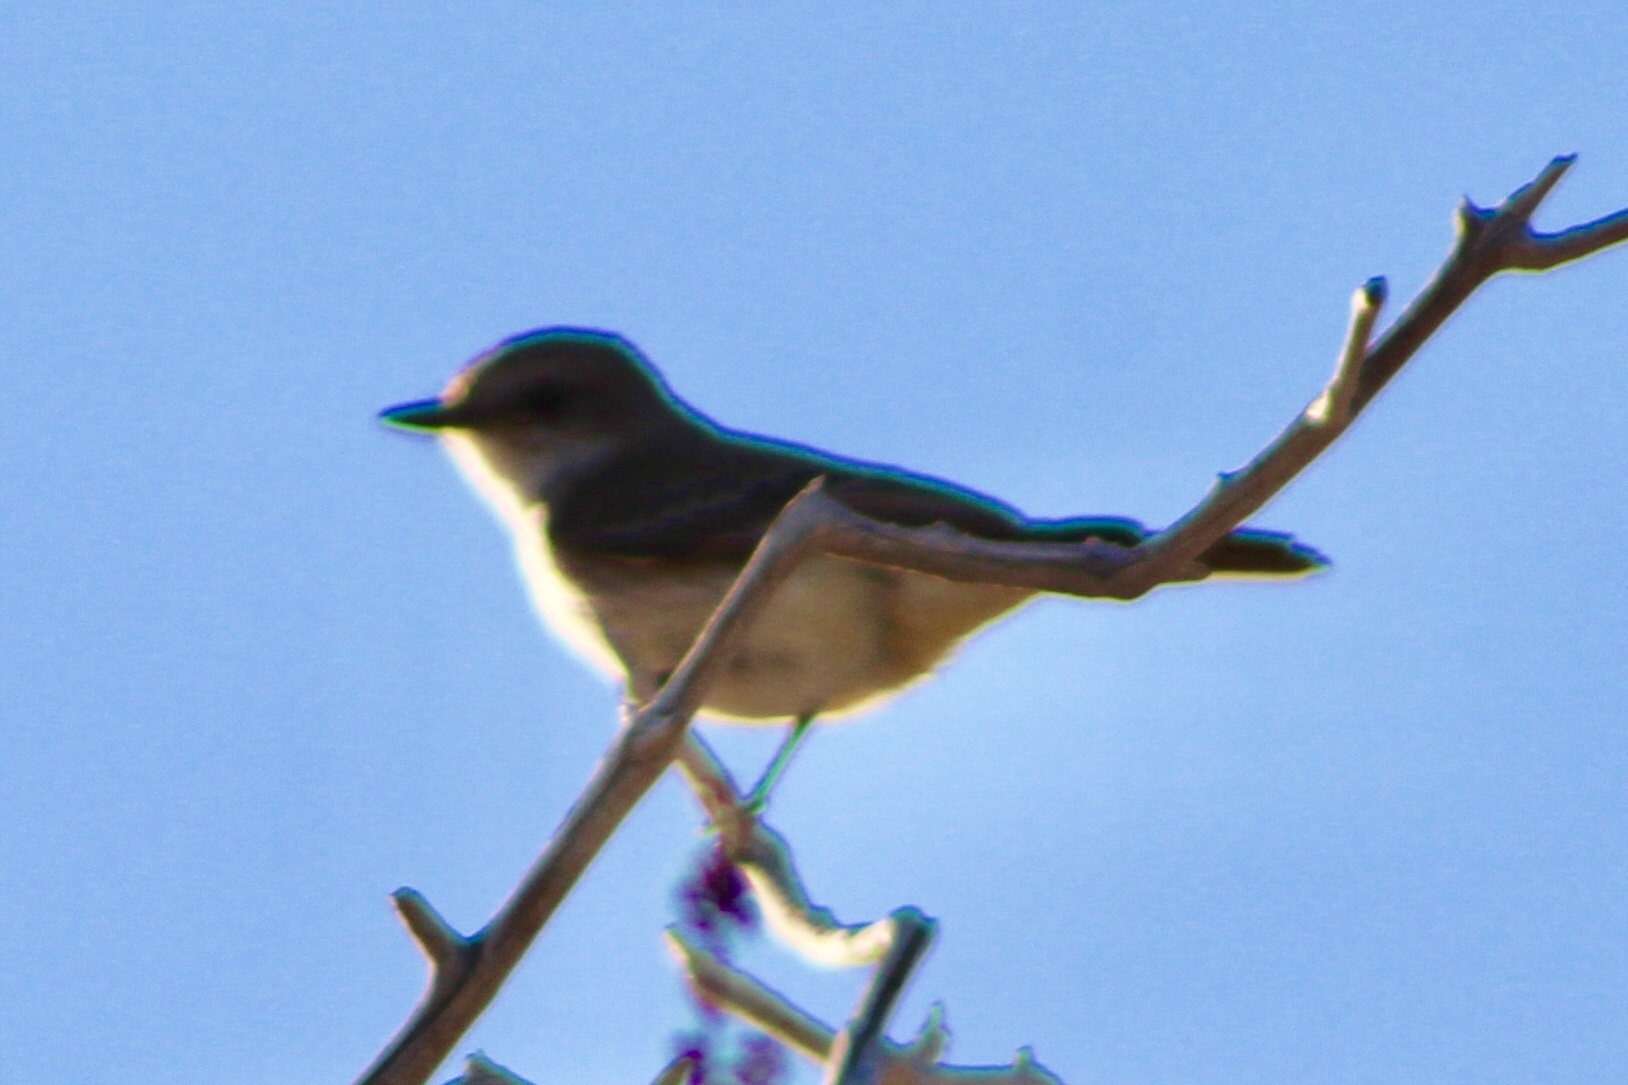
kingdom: Animalia
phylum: Chordata
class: Aves
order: Passeriformes
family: Tyrannidae
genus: Pyrocephalus
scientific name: Pyrocephalus rubinus
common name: Vermilion flycatcher
